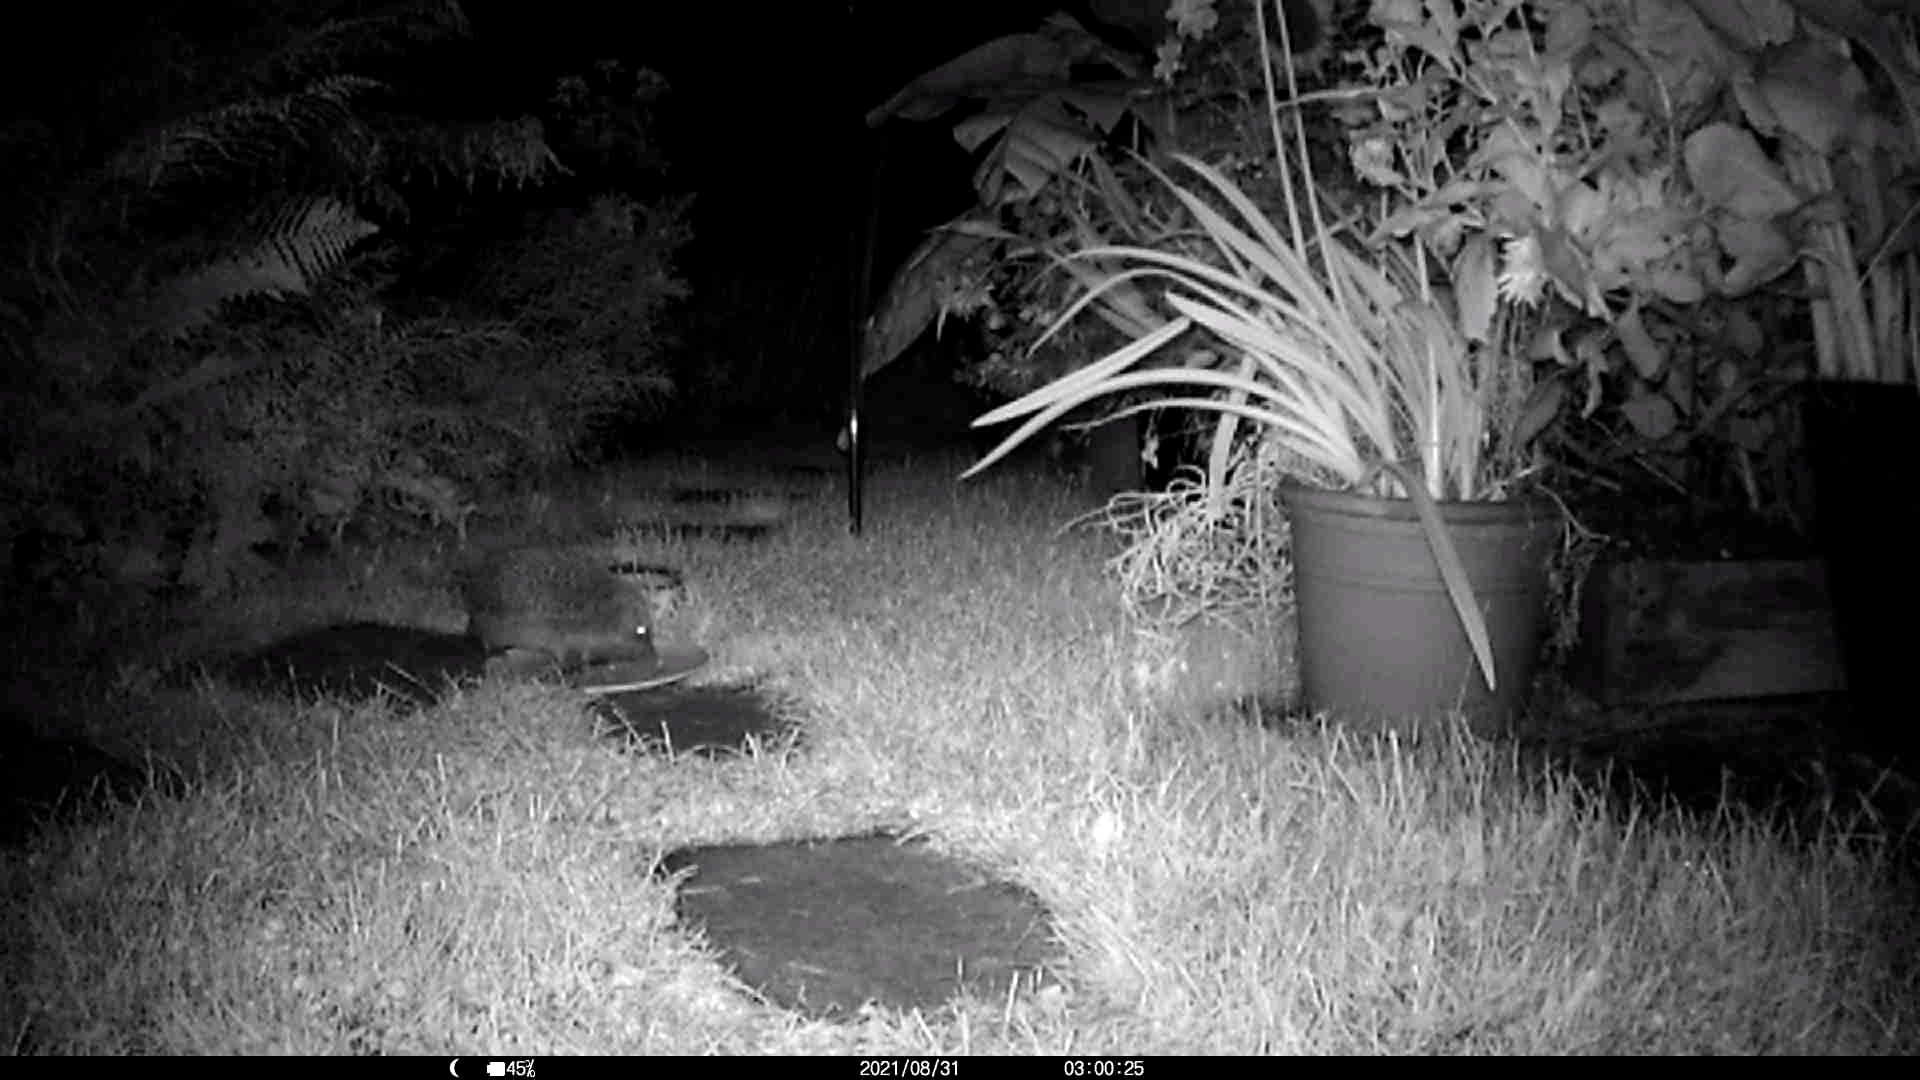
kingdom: Animalia
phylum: Chordata
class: Mammalia
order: Erinaceomorpha
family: Erinaceidae
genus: Erinaceus
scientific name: Erinaceus europaeus
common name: West european hedgehog
